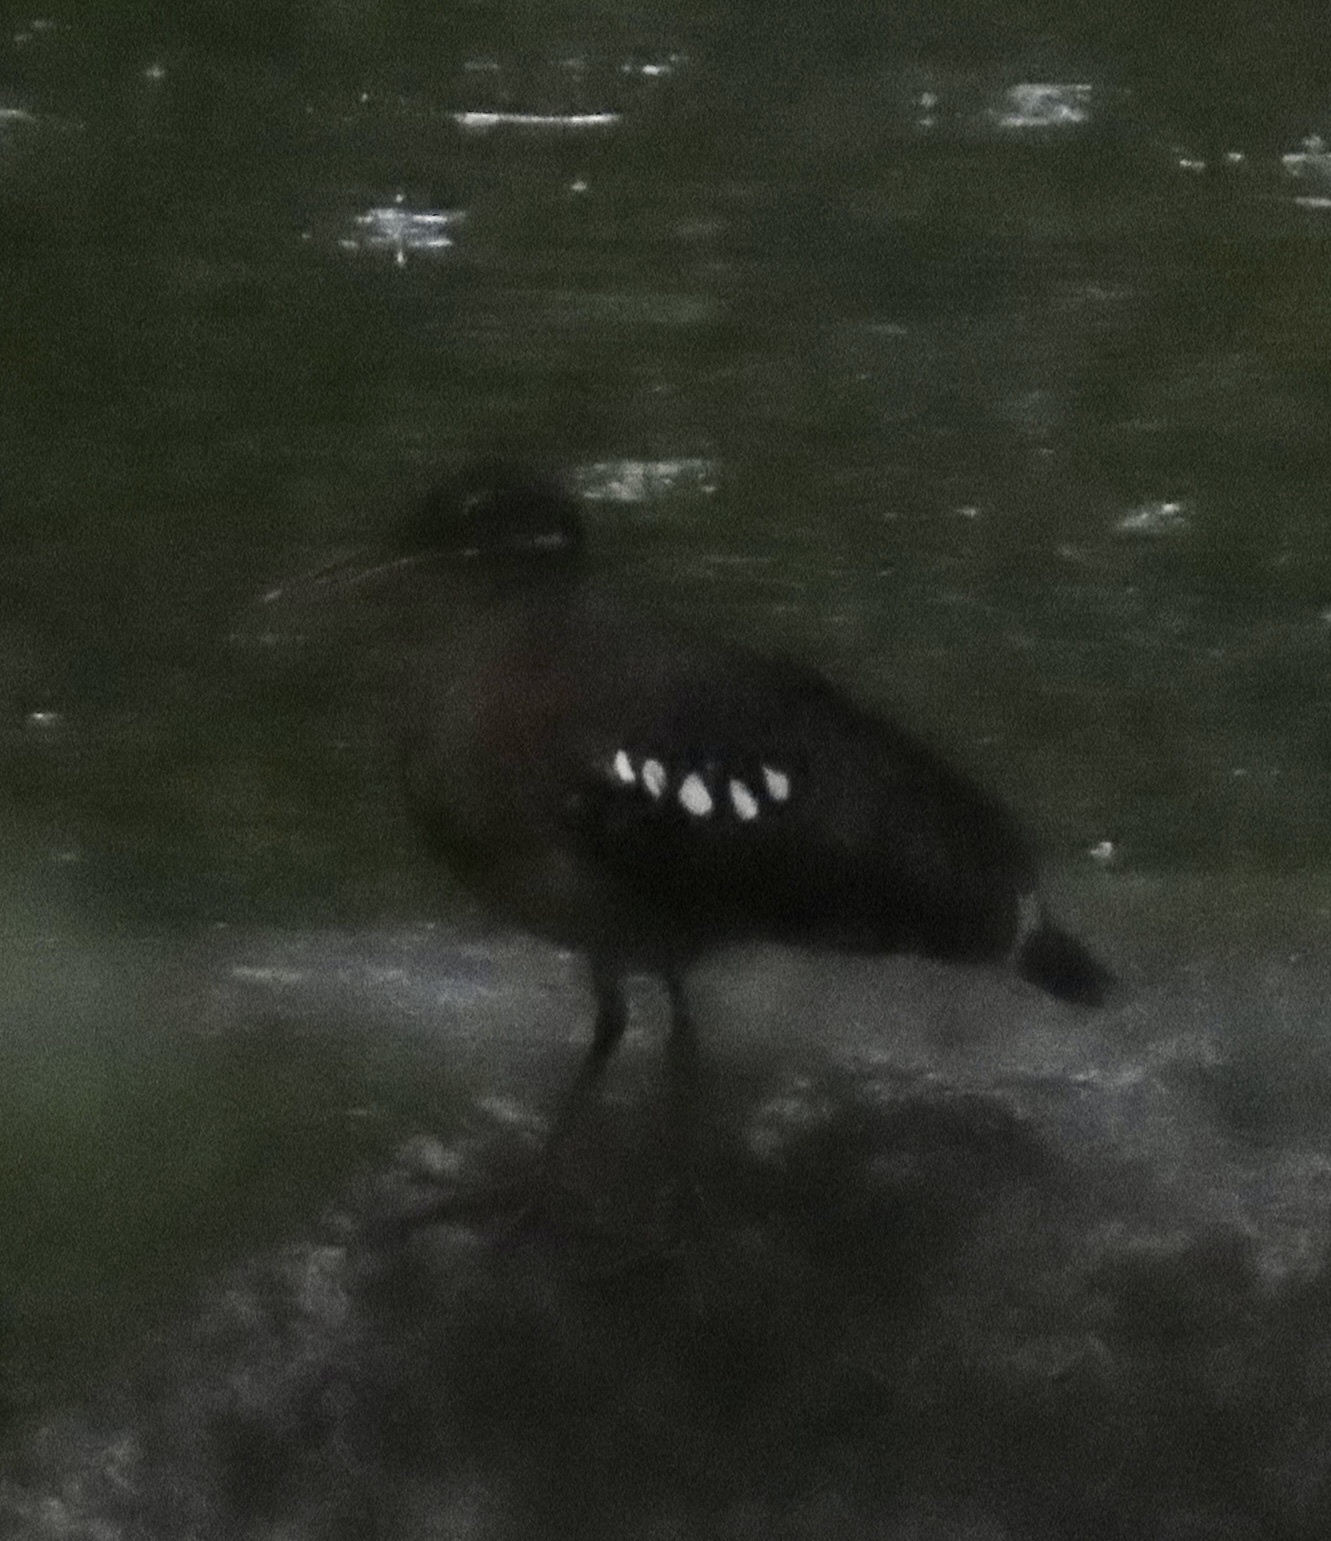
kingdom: Animalia
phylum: Chordata
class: Aves
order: Eurypygiformes
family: Eurypygidae
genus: Eurypyga
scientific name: Eurypyga helias
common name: Sunbittern
